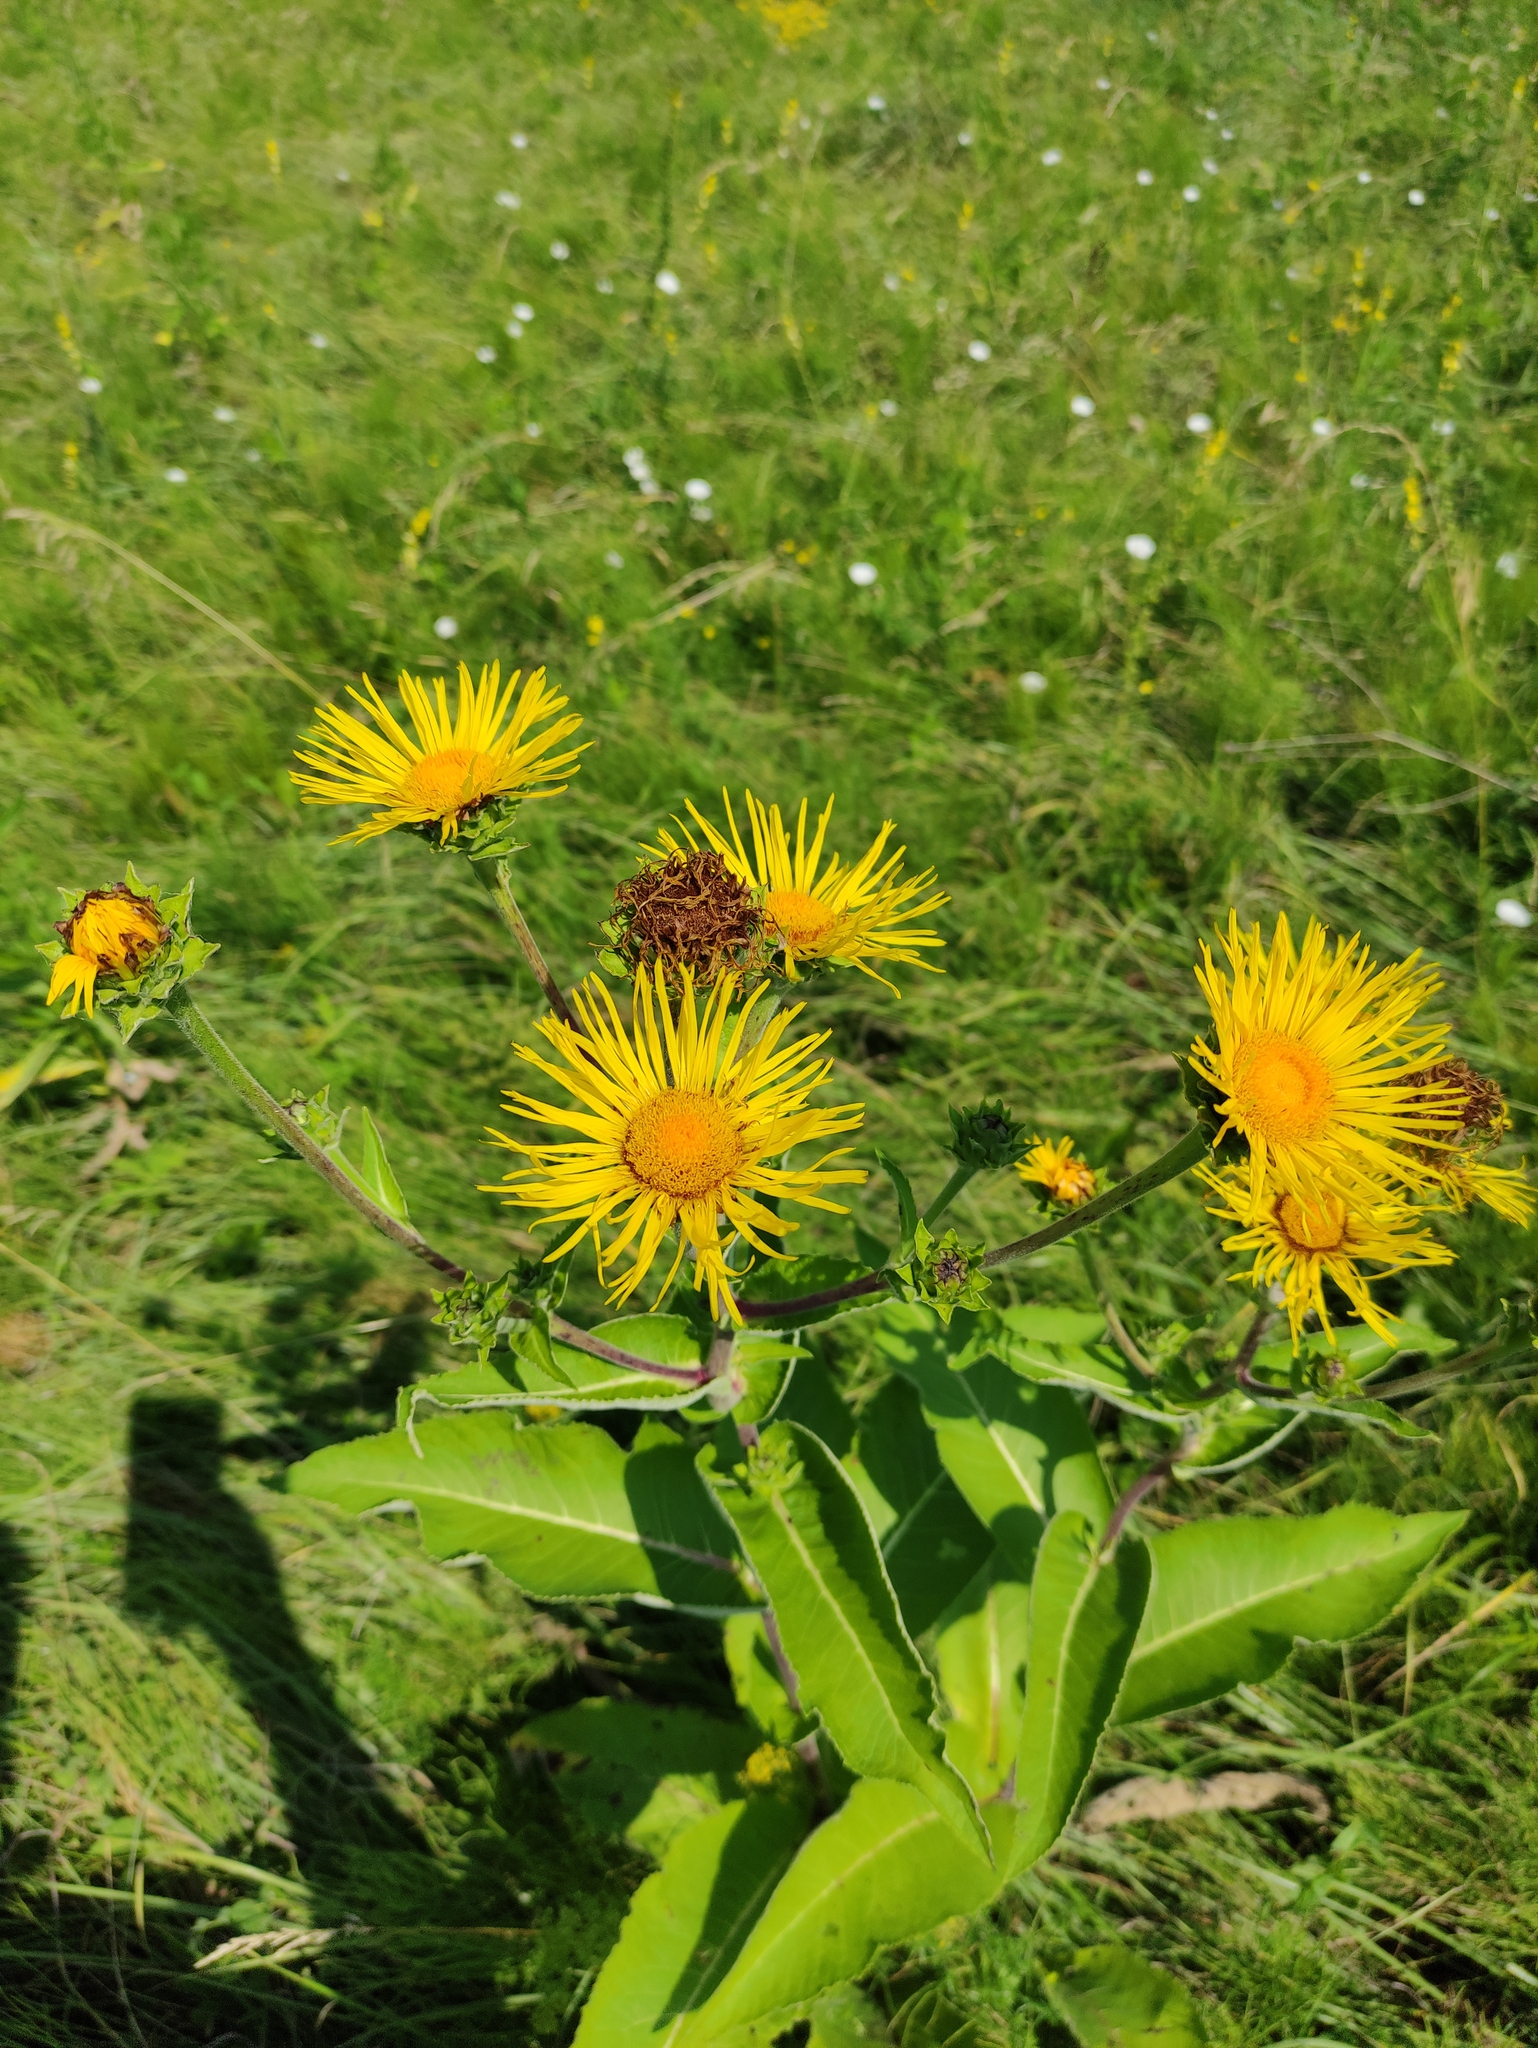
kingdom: Plantae
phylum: Tracheophyta
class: Magnoliopsida
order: Asterales
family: Asteraceae
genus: Inula
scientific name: Inula helenium
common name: Elecampane
